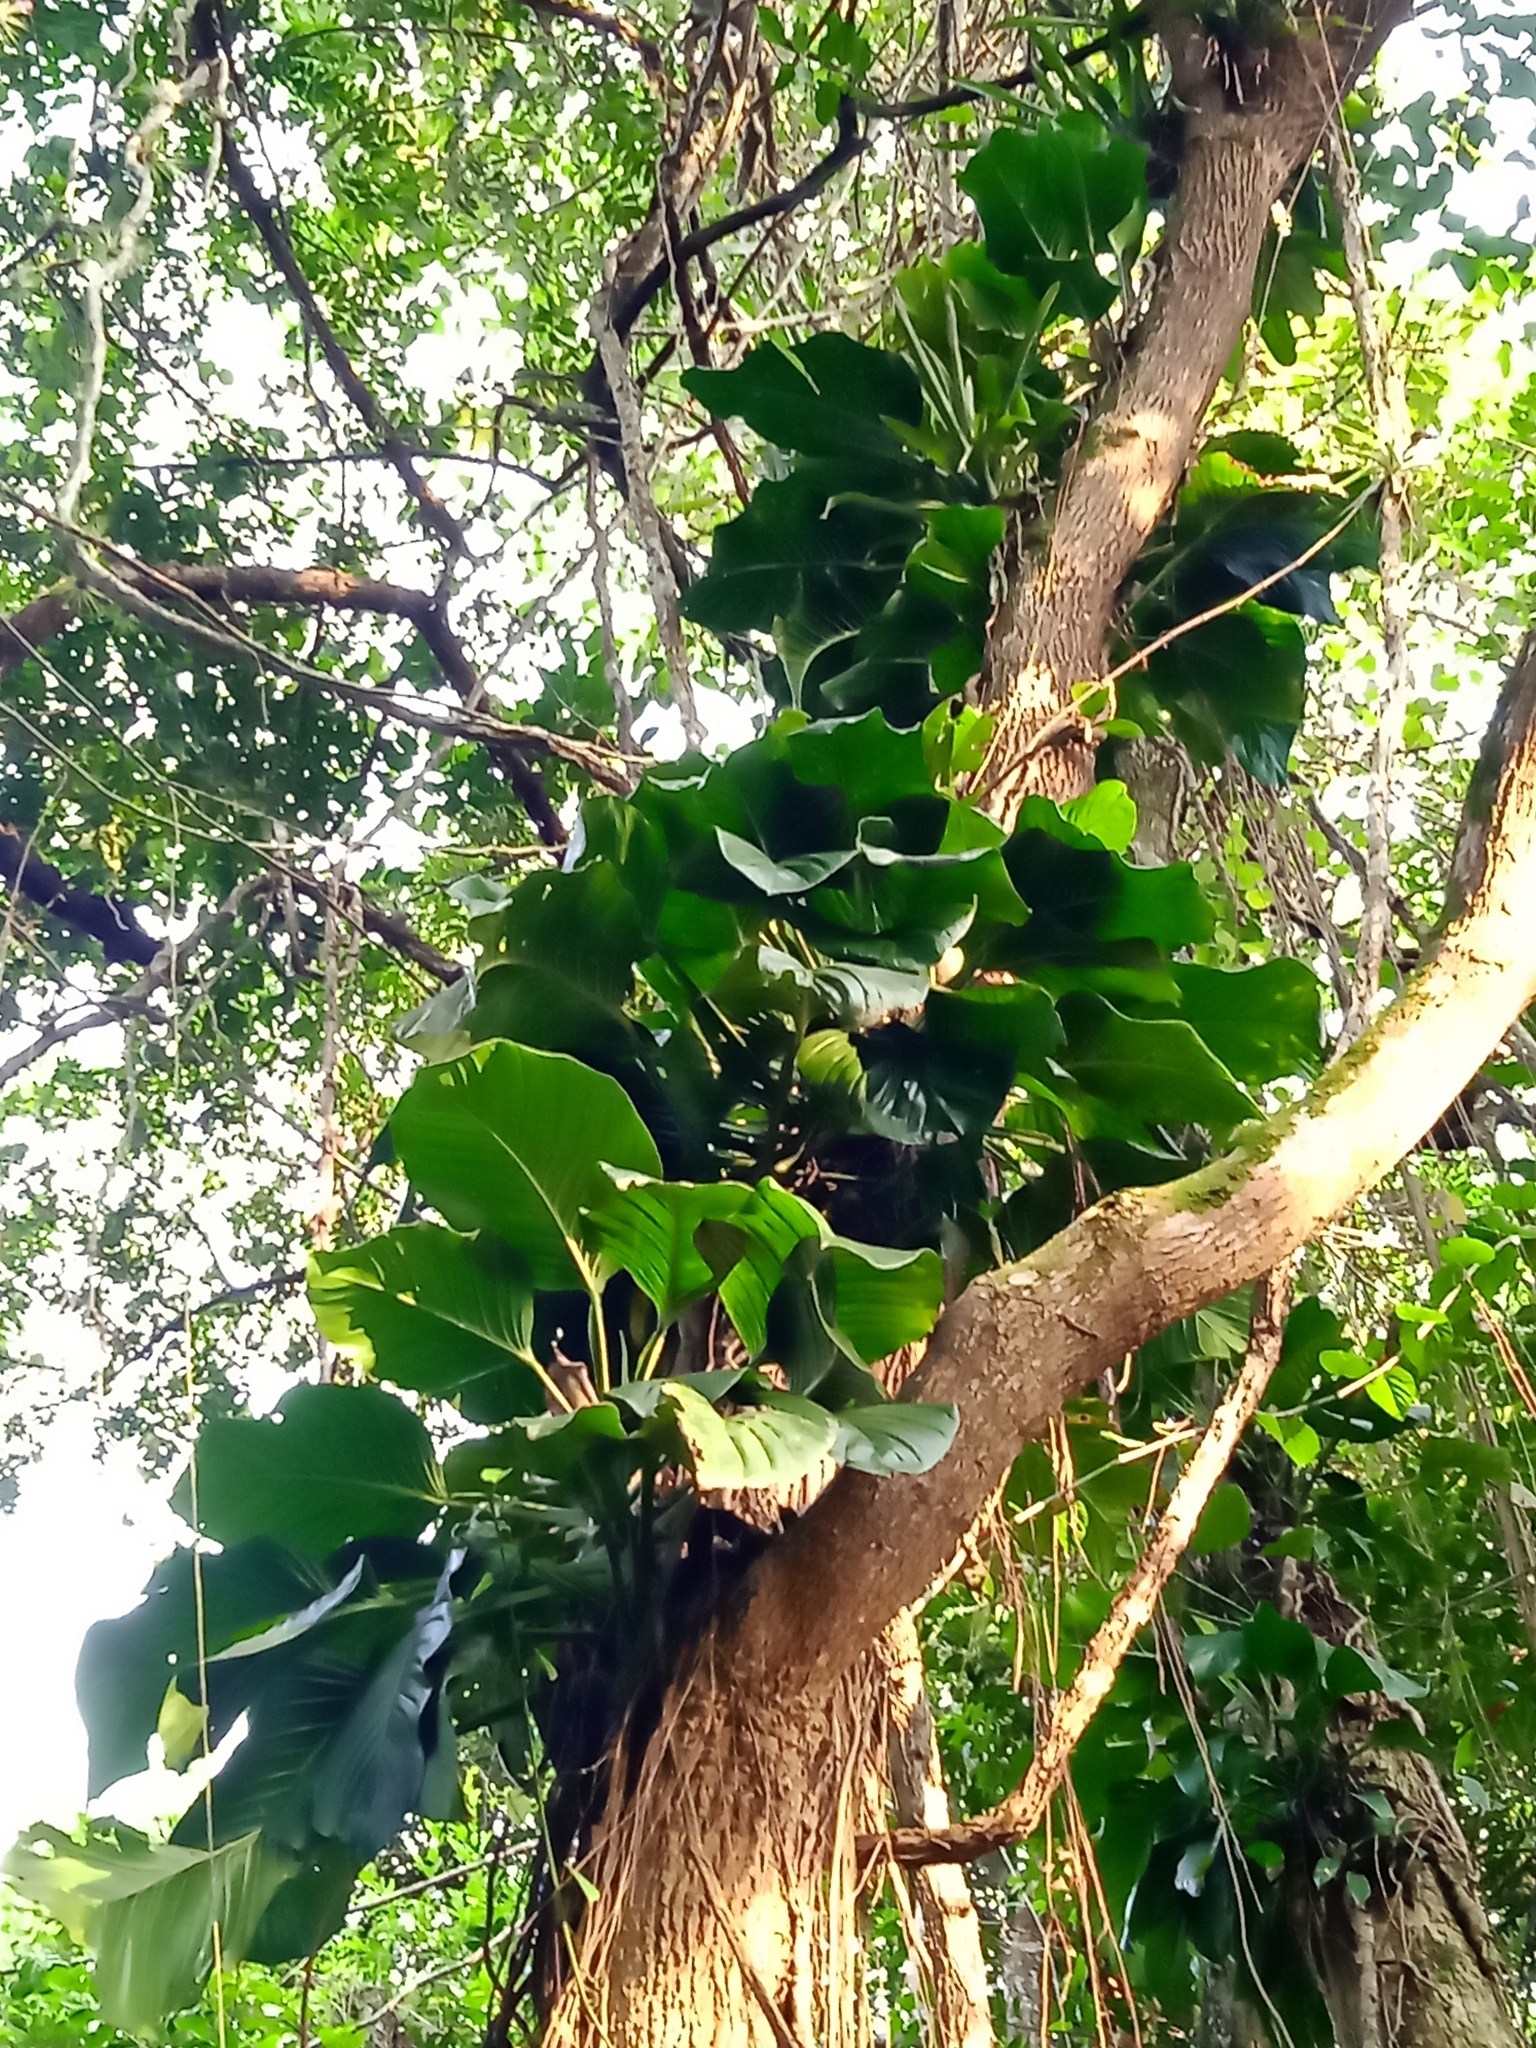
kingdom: Plantae
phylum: Tracheophyta
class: Liliopsida
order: Alismatales
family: Araceae
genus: Epipremnum
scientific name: Epipremnum aureum
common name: Golden hunter's-robe
